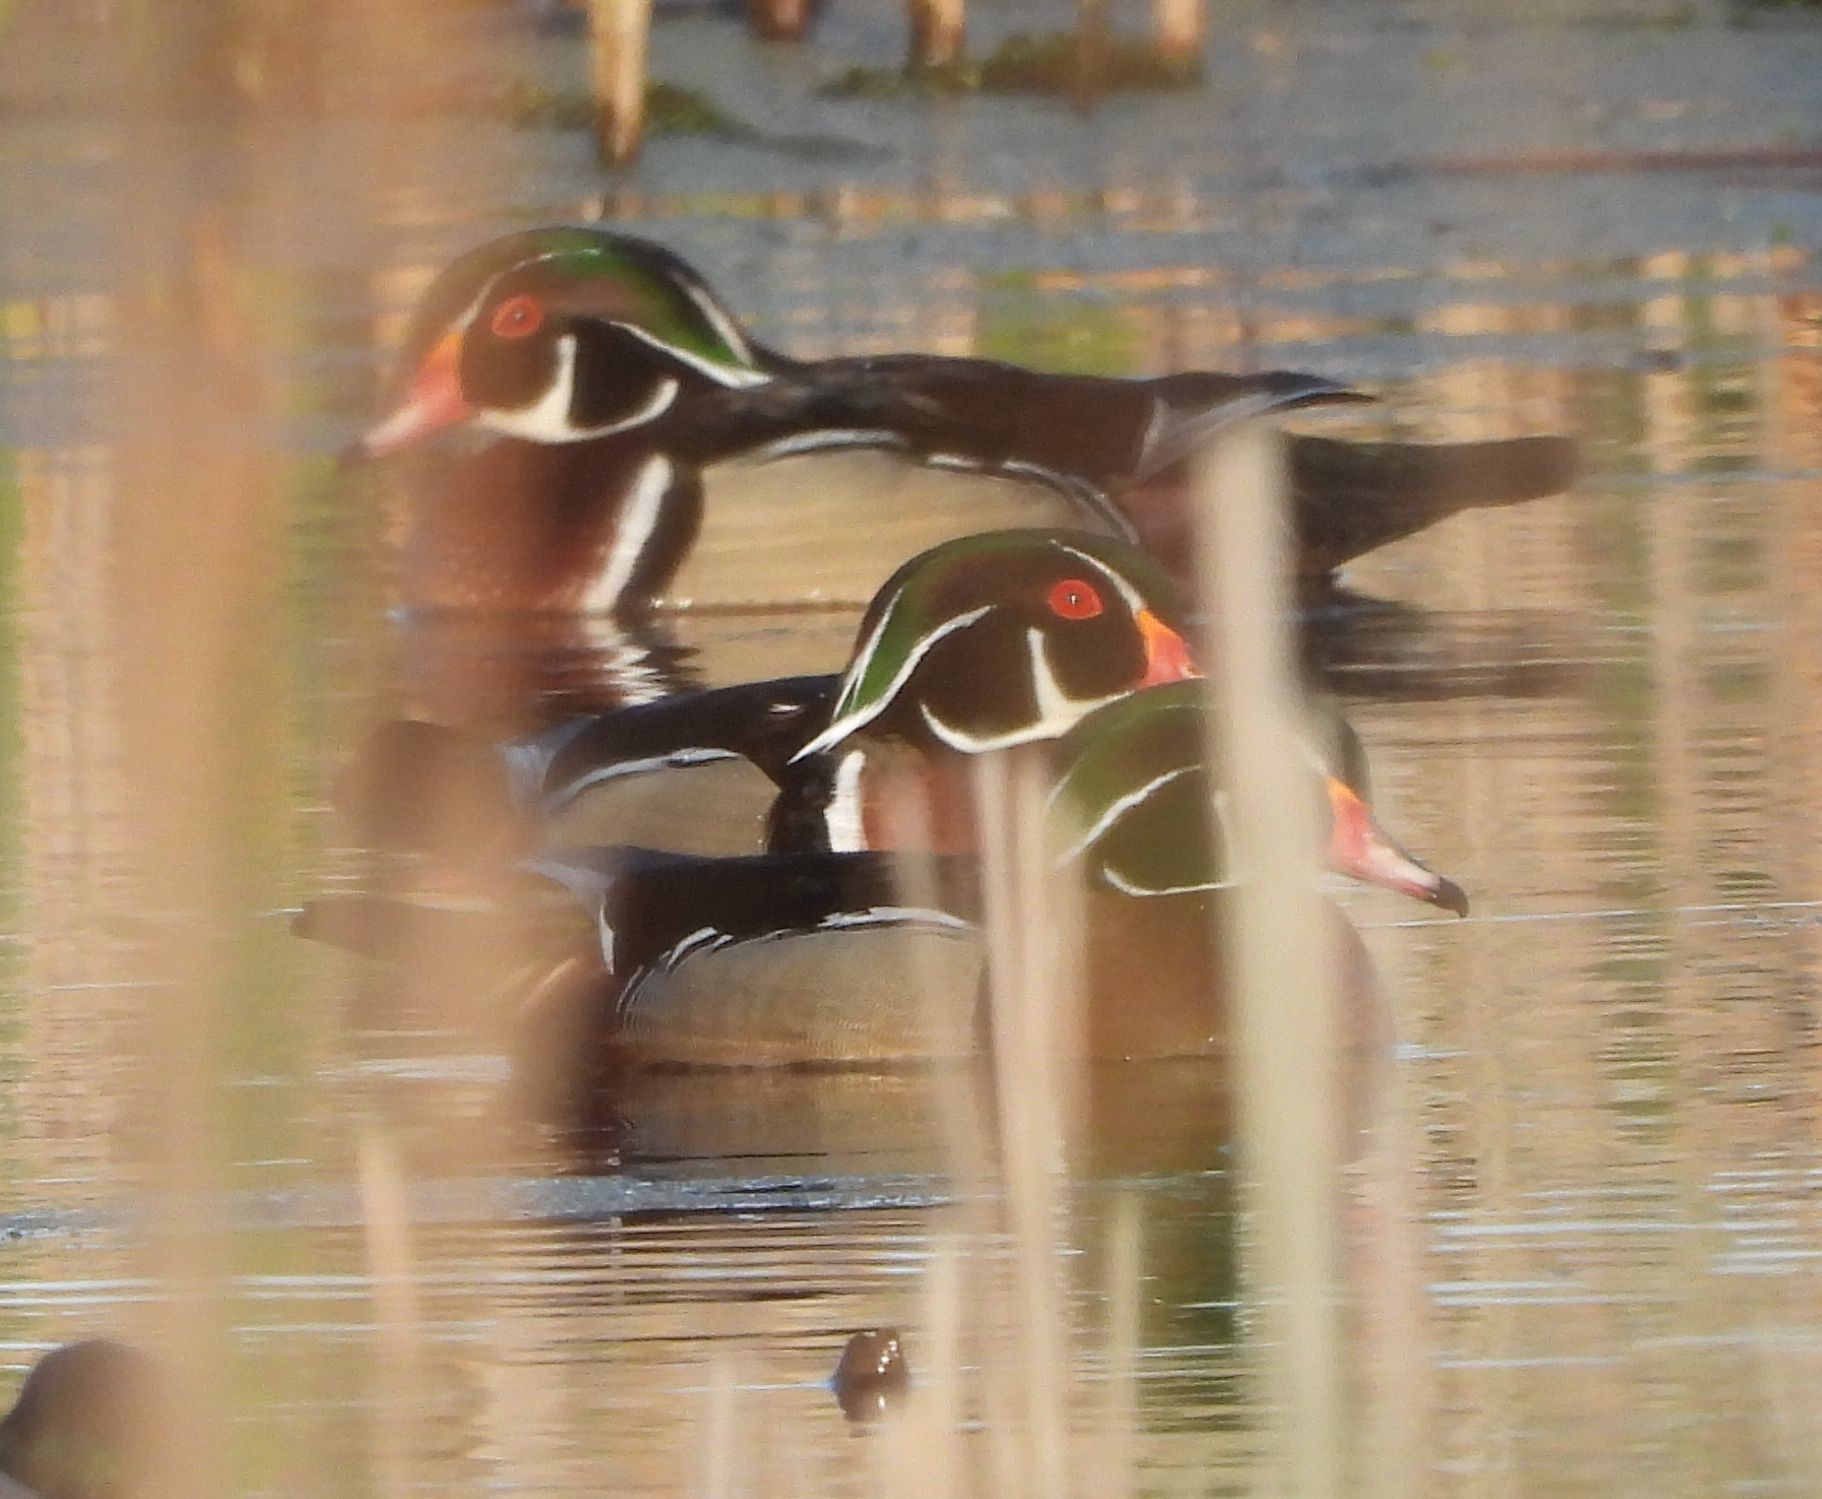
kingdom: Animalia
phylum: Chordata
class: Aves
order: Anseriformes
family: Anatidae
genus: Aix
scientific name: Aix sponsa
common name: Wood duck
